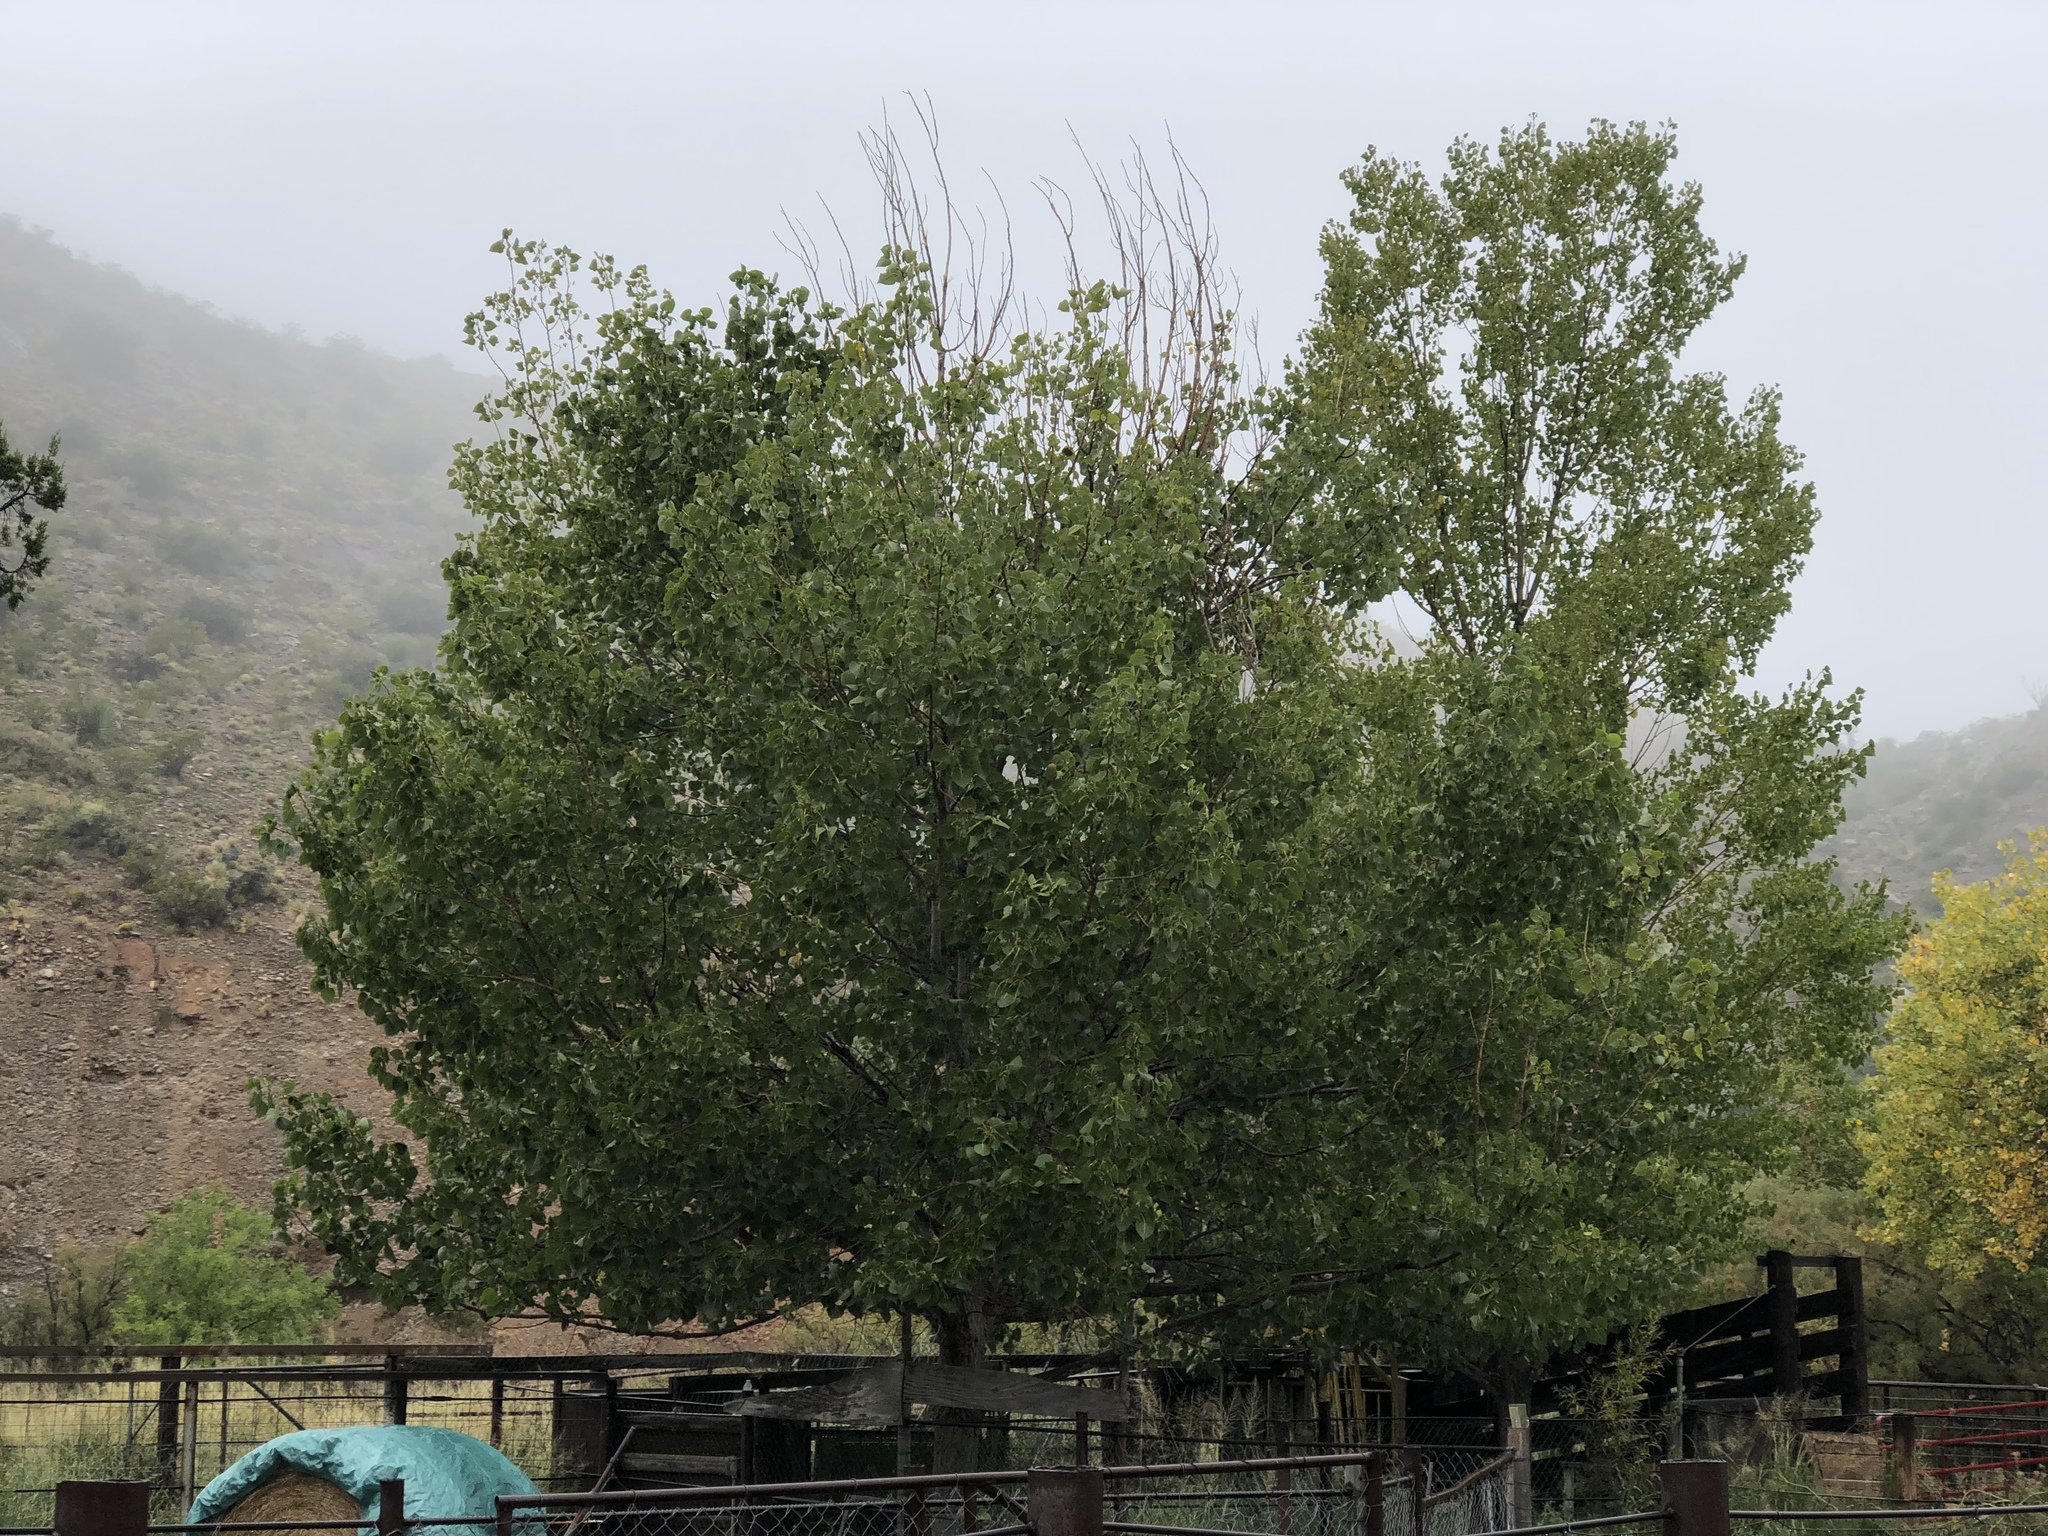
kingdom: Plantae
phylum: Tracheophyta
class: Magnoliopsida
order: Malpighiales
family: Salicaceae
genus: Populus
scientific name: Populus fremontii
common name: Fremont's cottonwood
